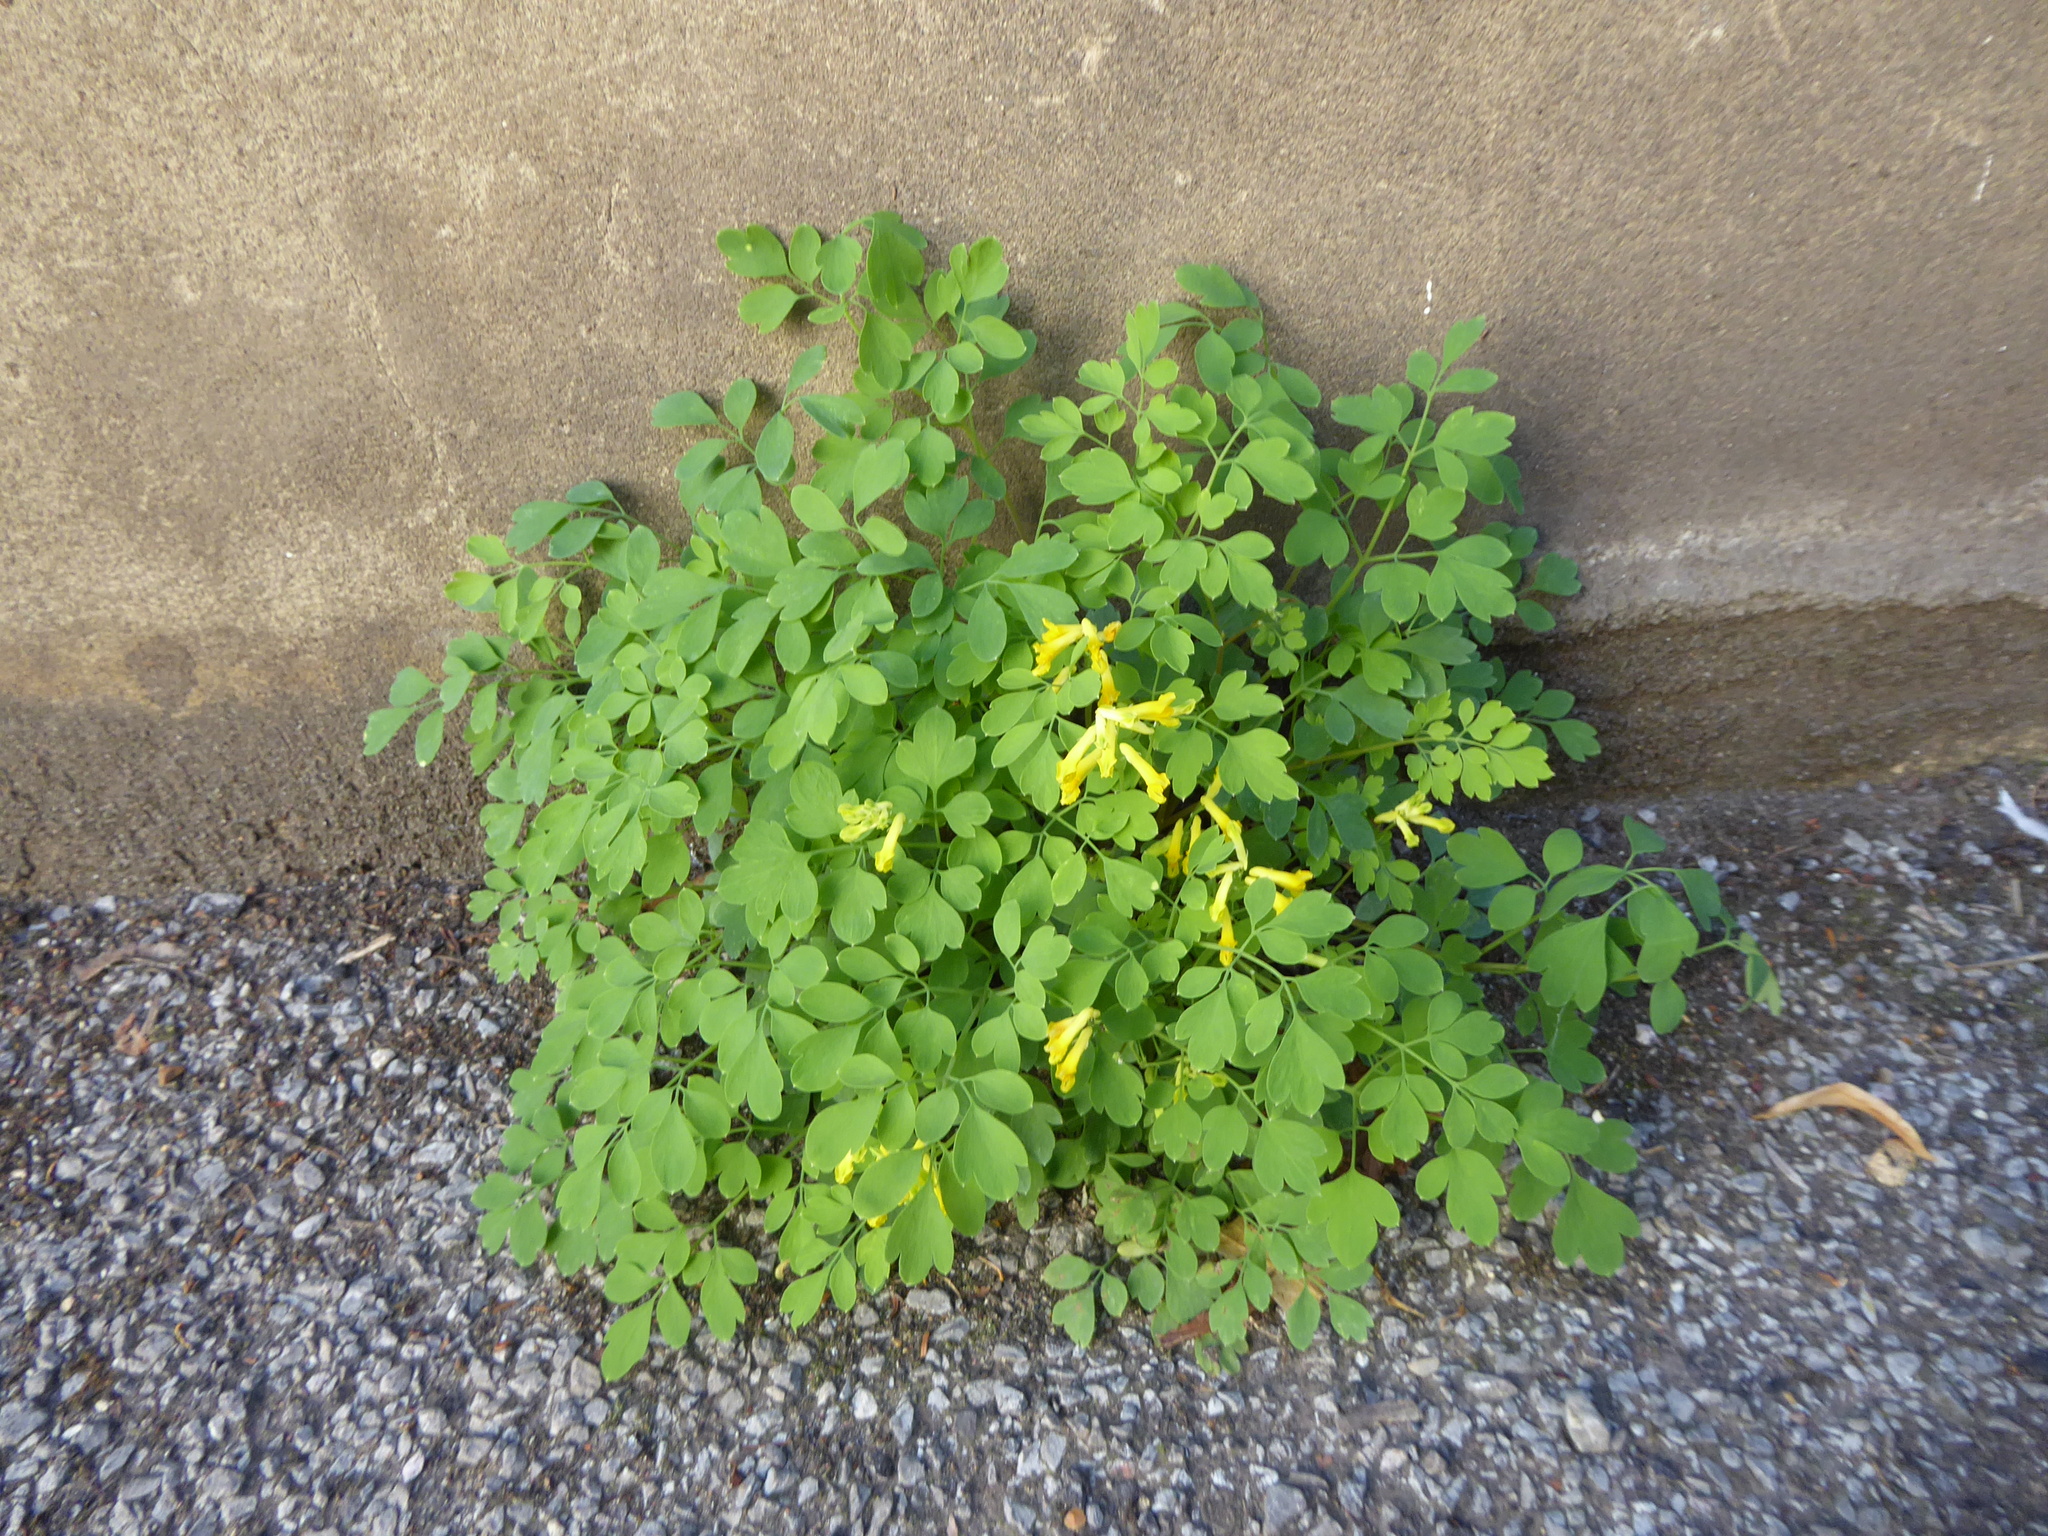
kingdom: Plantae
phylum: Tracheophyta
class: Magnoliopsida
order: Ranunculales
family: Papaveraceae
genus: Pseudofumaria
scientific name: Pseudofumaria lutea
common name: Yellow corydalis
